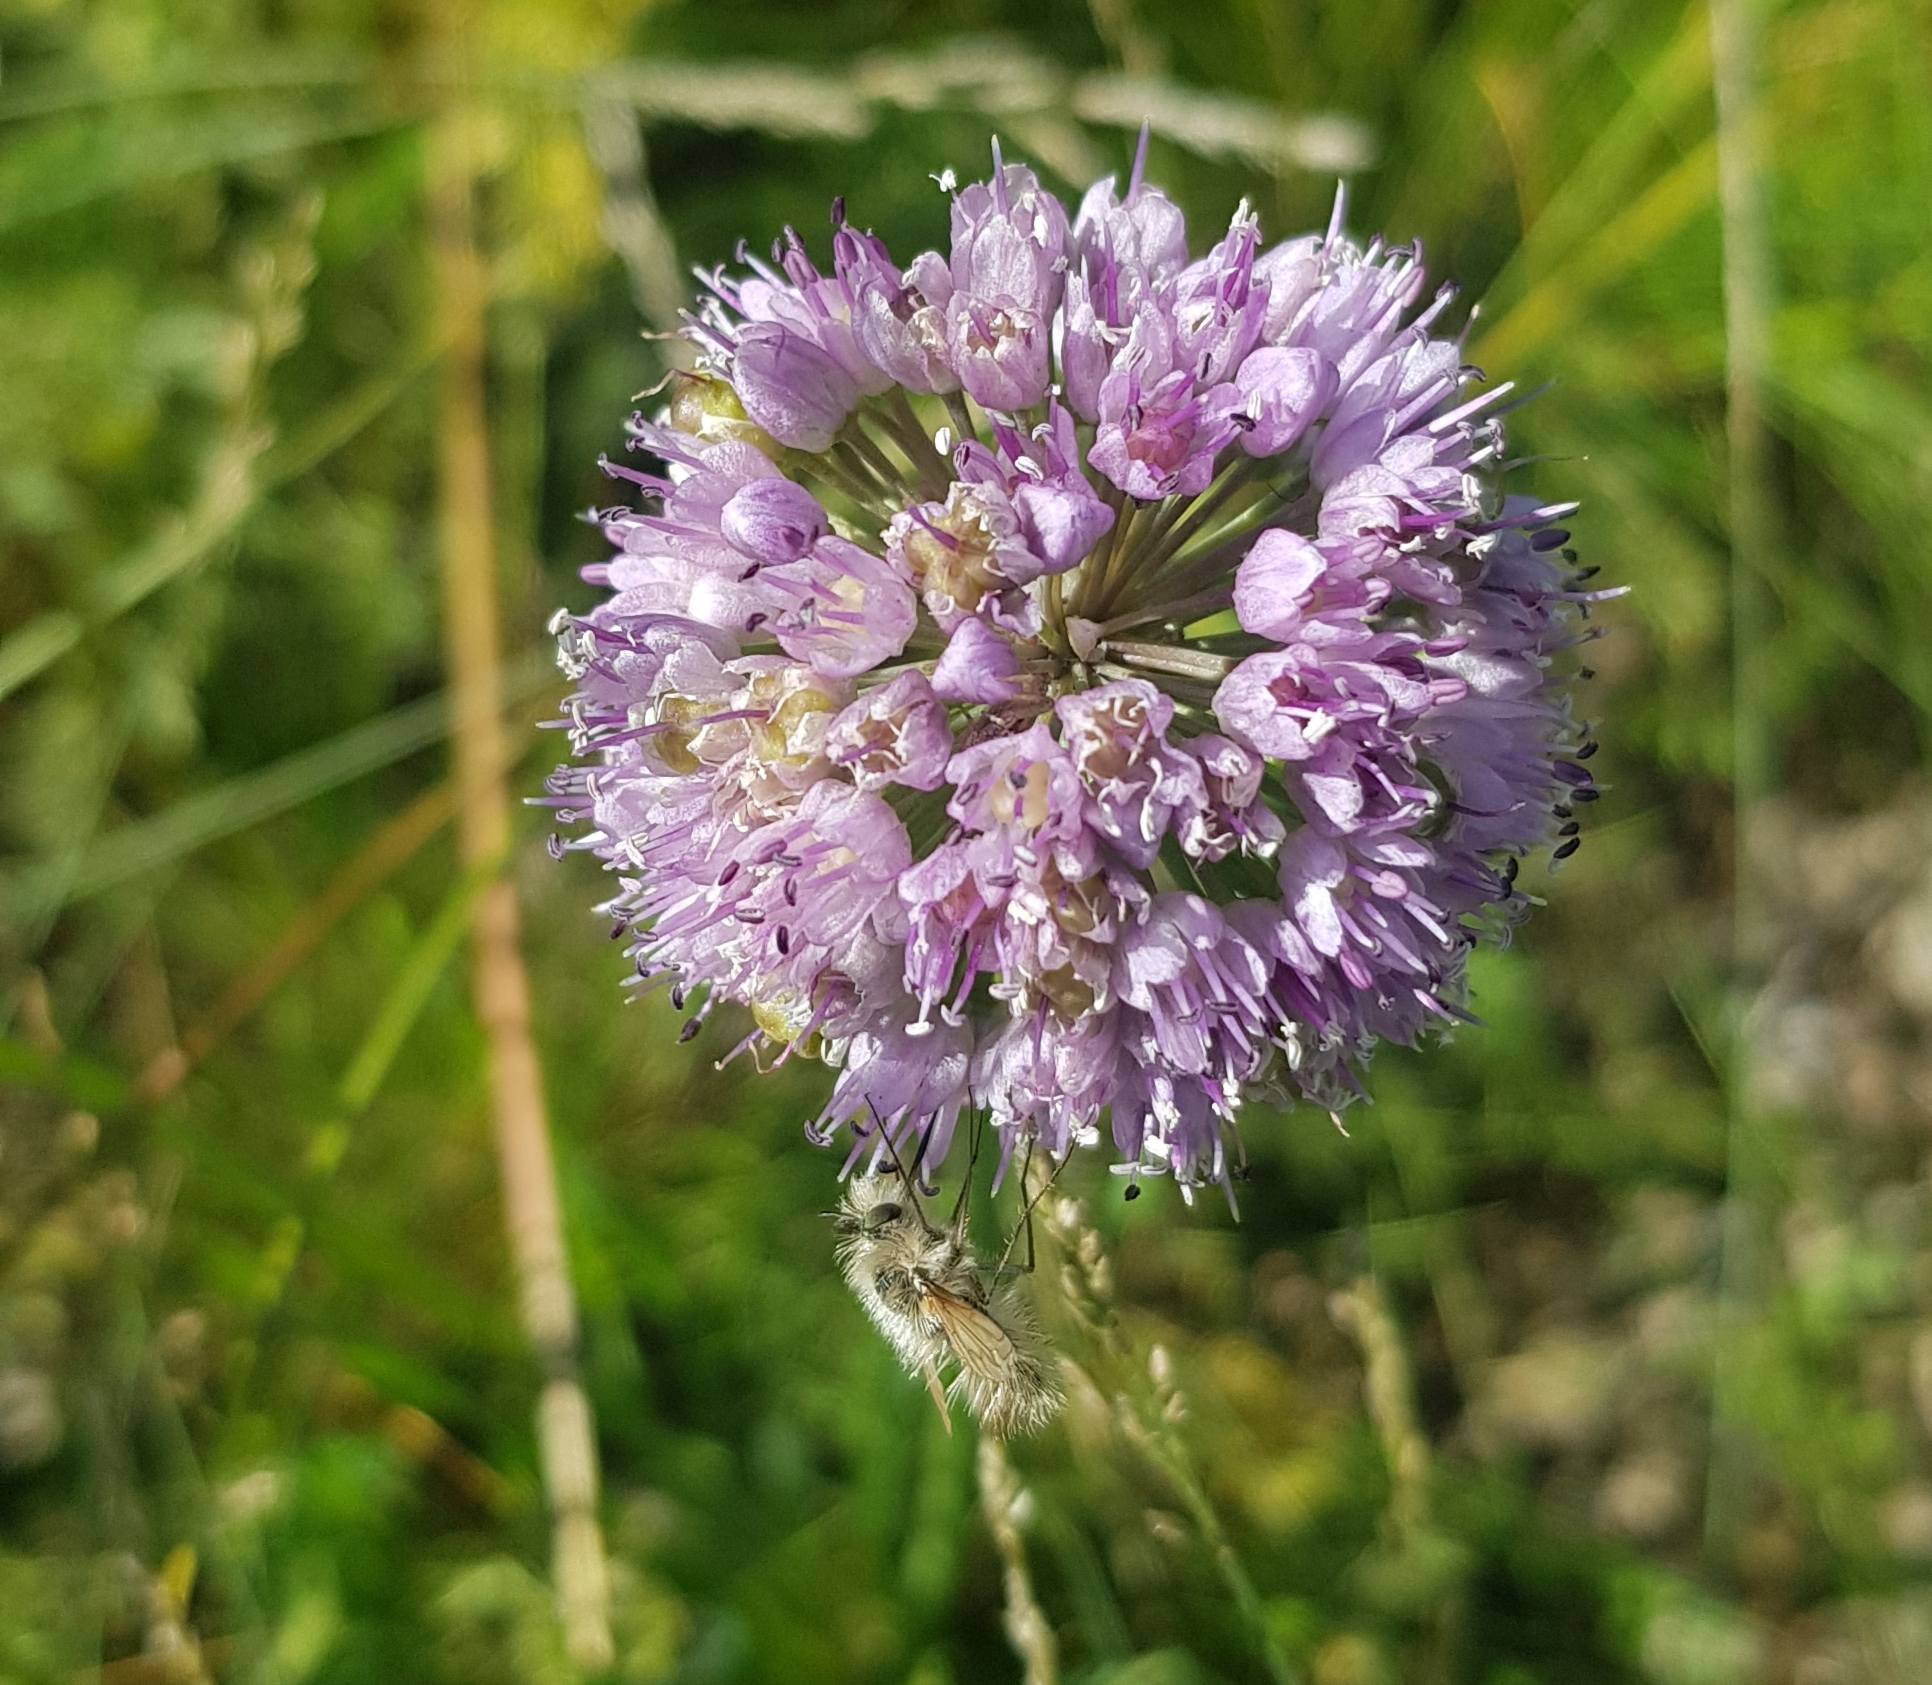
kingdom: Plantae
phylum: Tracheophyta
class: Liliopsida
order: Asparagales
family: Amaryllidaceae
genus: Allium
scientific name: Allium senescens
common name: German garlic
